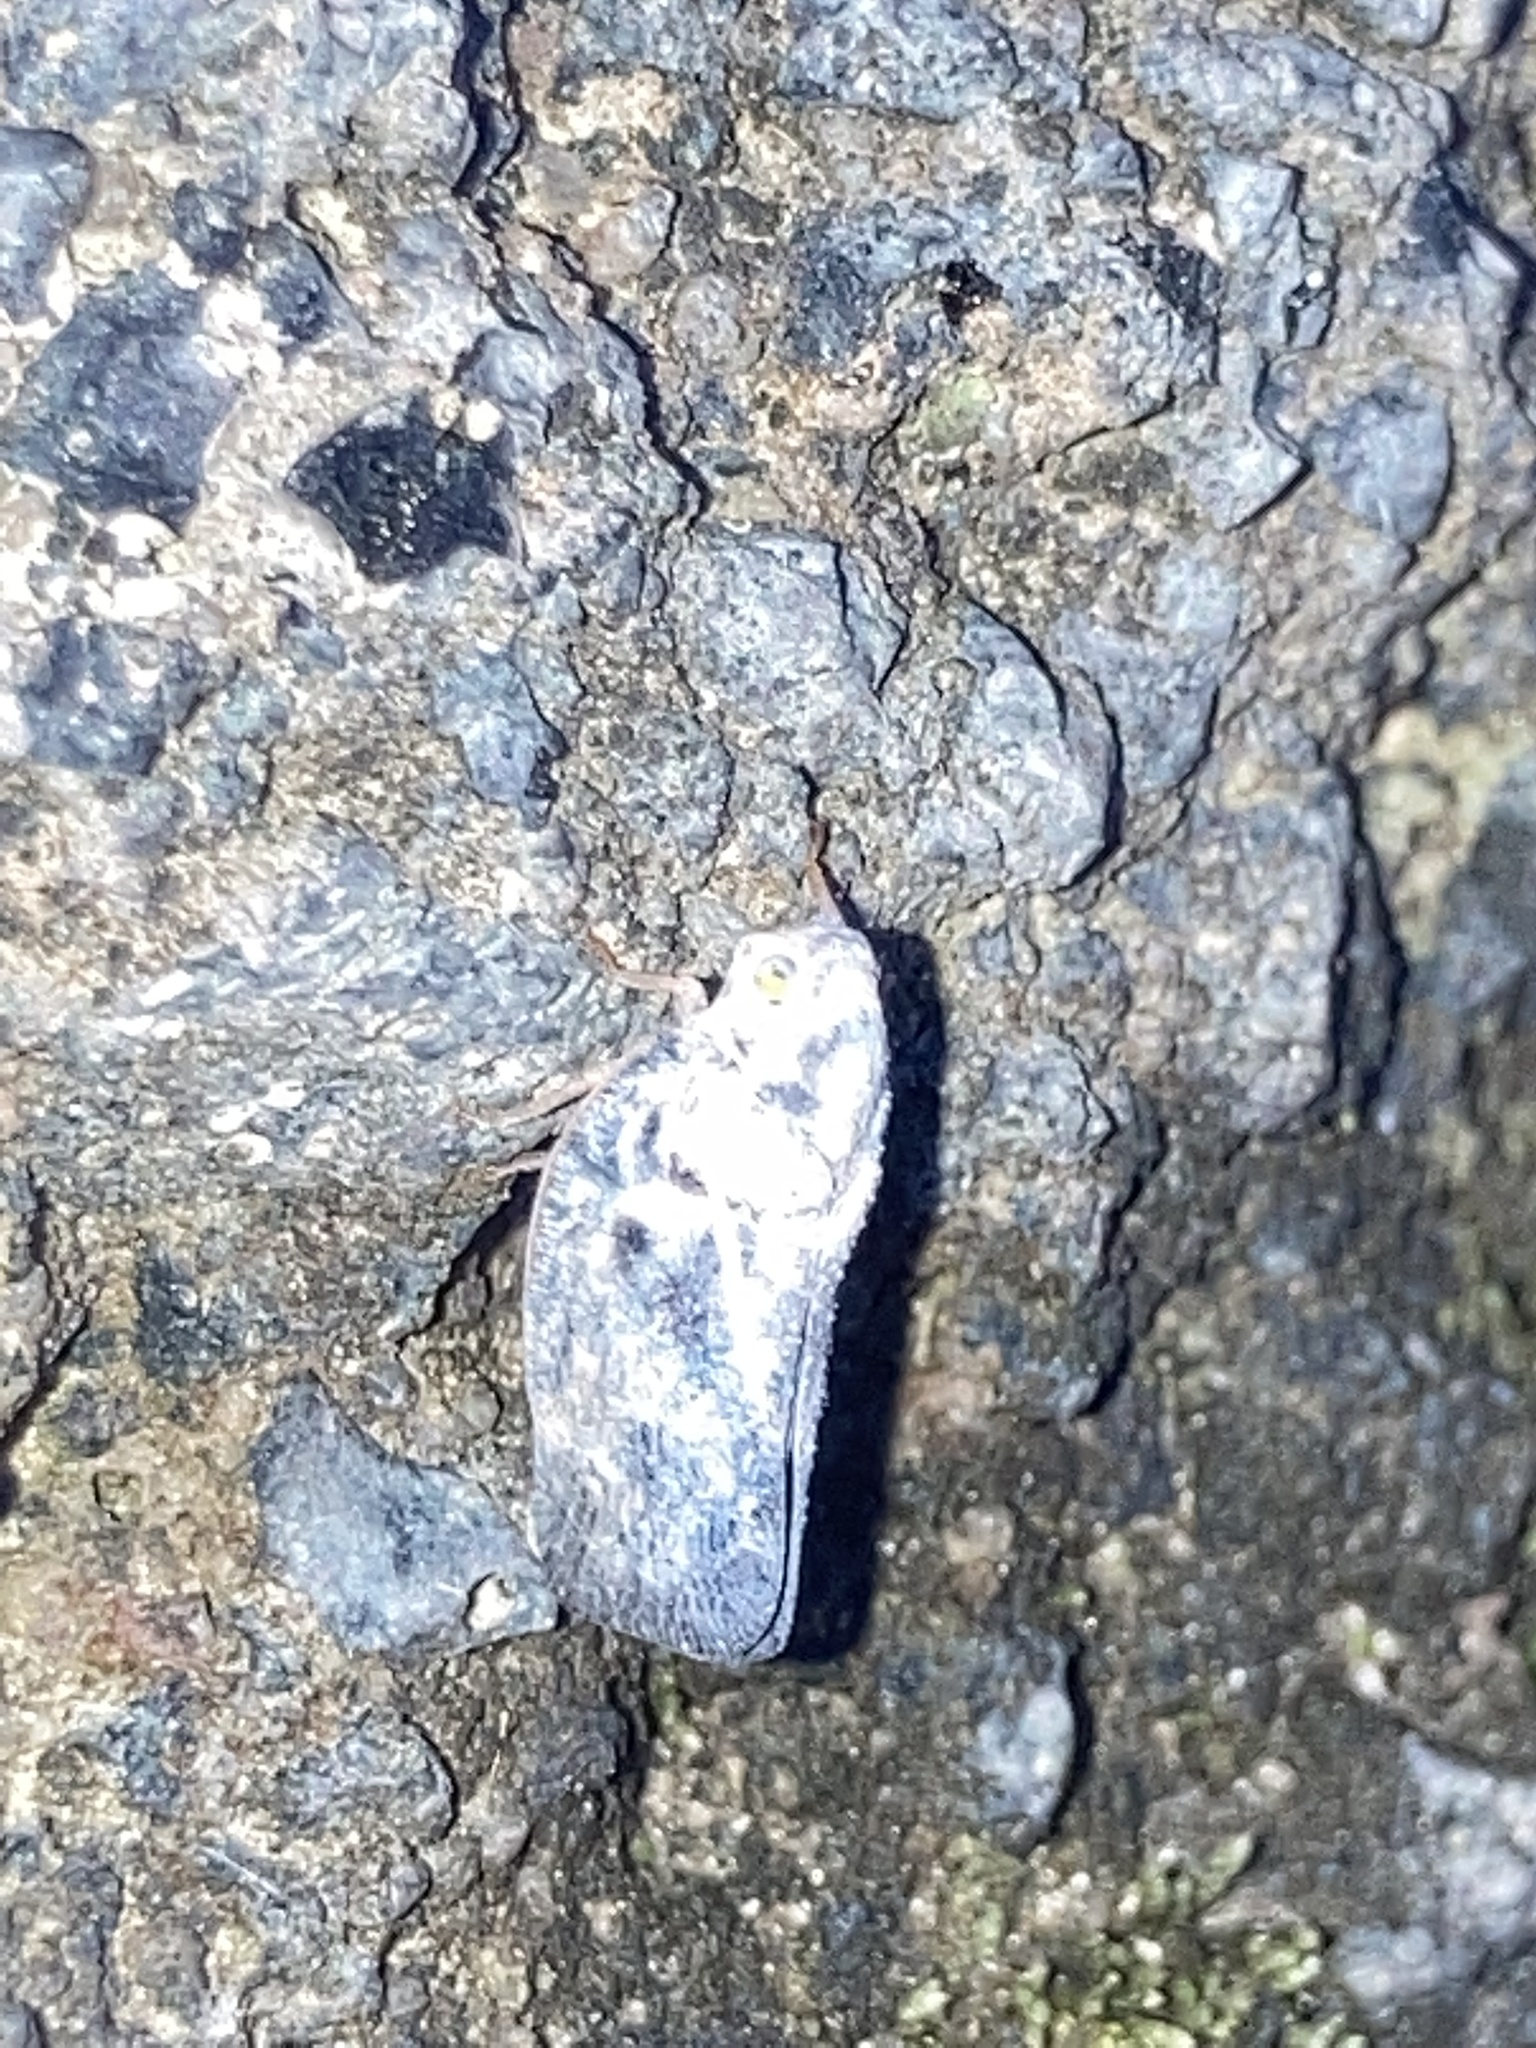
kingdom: Animalia
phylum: Arthropoda
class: Insecta
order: Hemiptera
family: Flatidae
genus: Metcalfa
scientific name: Metcalfa pruinosa
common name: Citrus flatid planthopper
